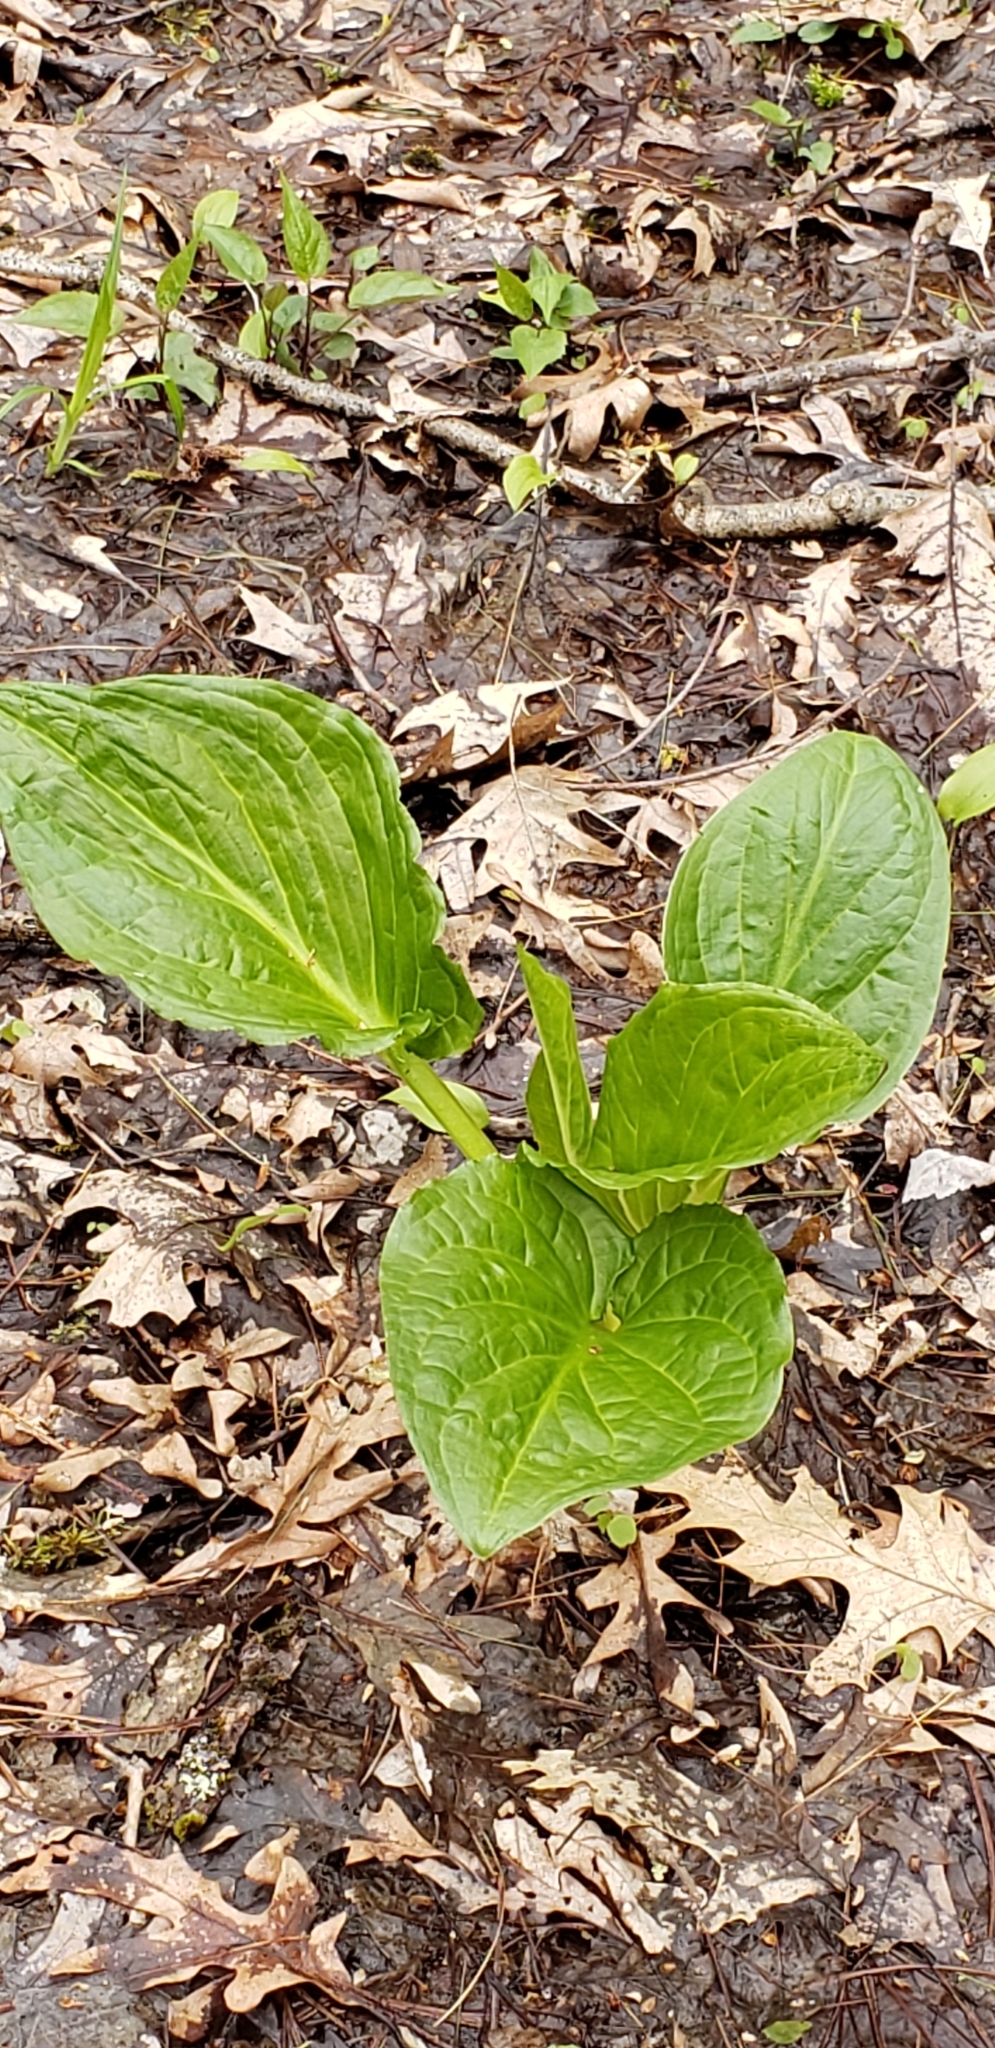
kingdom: Plantae
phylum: Tracheophyta
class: Liliopsida
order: Alismatales
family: Araceae
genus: Symplocarpus
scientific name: Symplocarpus foetidus
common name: Eastern skunk cabbage
